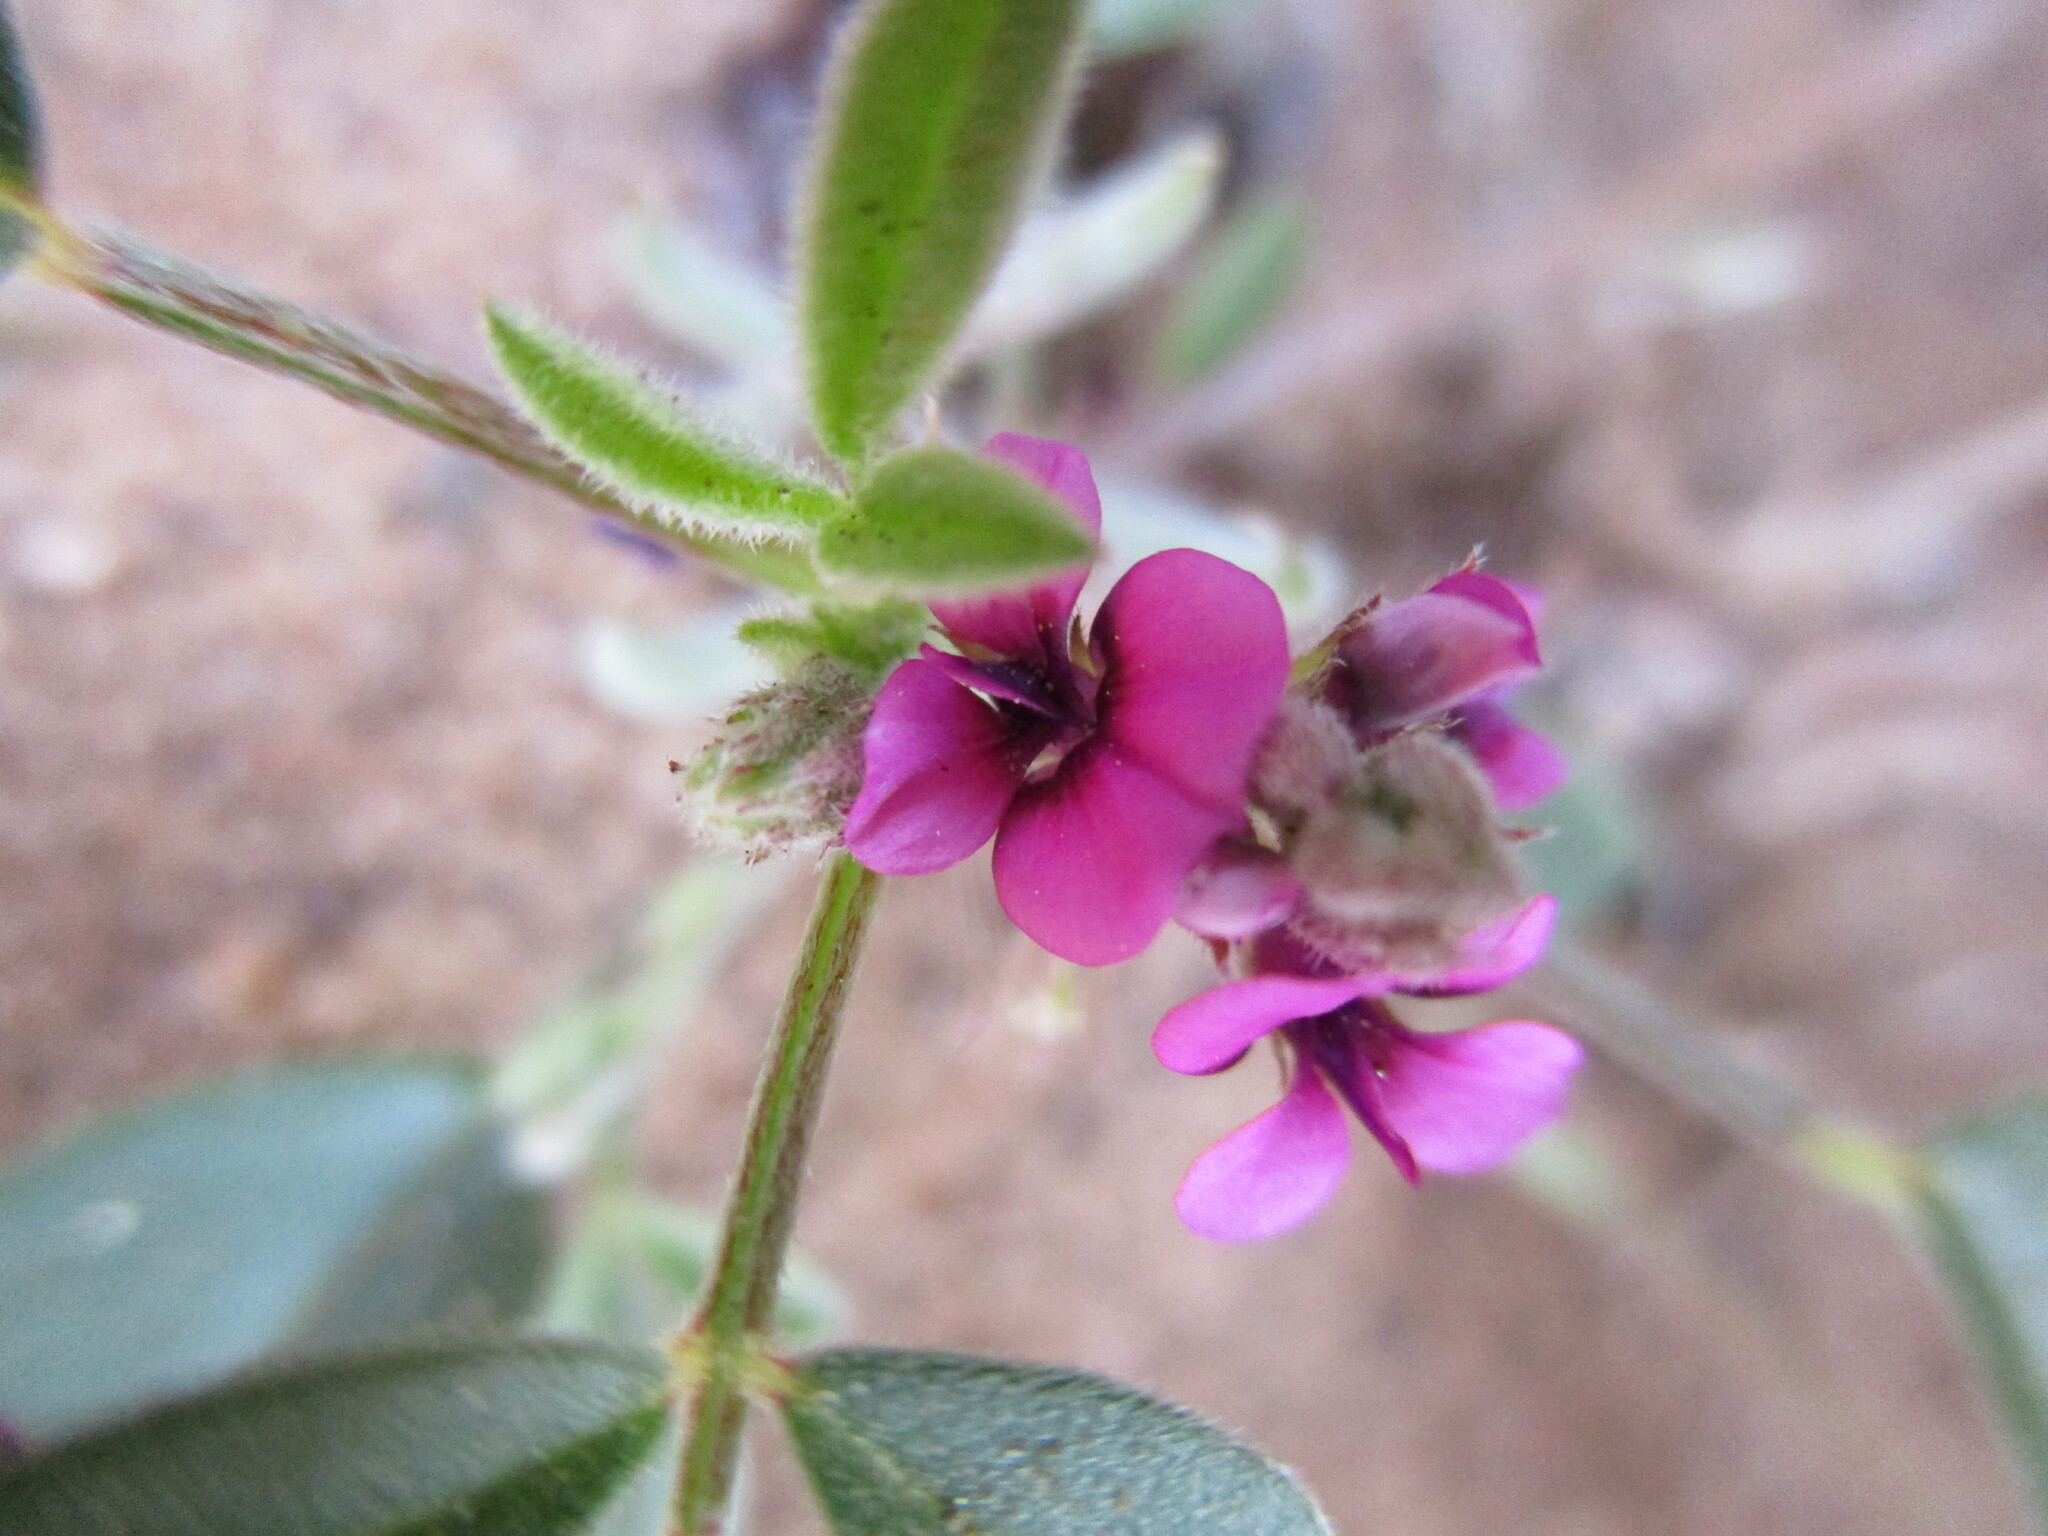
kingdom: Plantae
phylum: Tracheophyta
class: Magnoliopsida
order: Fabales
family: Fabaceae
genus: Indigastrum
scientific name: Indigastrum argyroides
